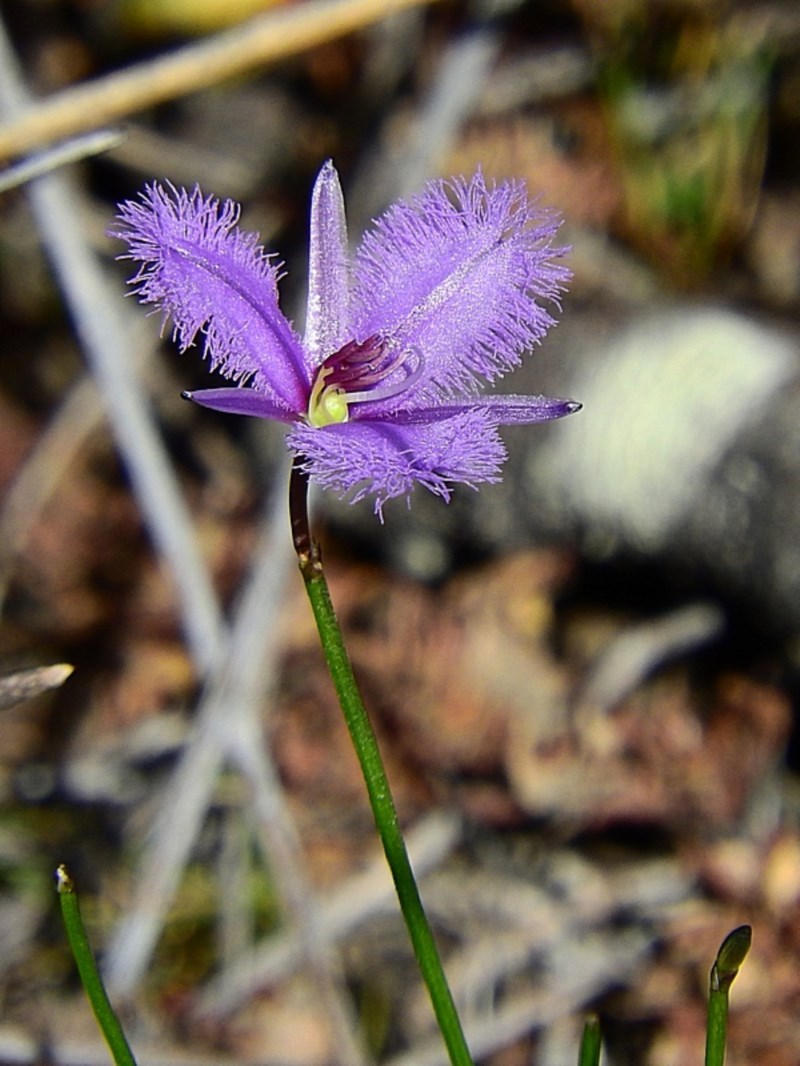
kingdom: Plantae
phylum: Tracheophyta
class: Liliopsida
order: Asparagales
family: Asparagaceae
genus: Thysanotus
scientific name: Thysanotus juncifolius
